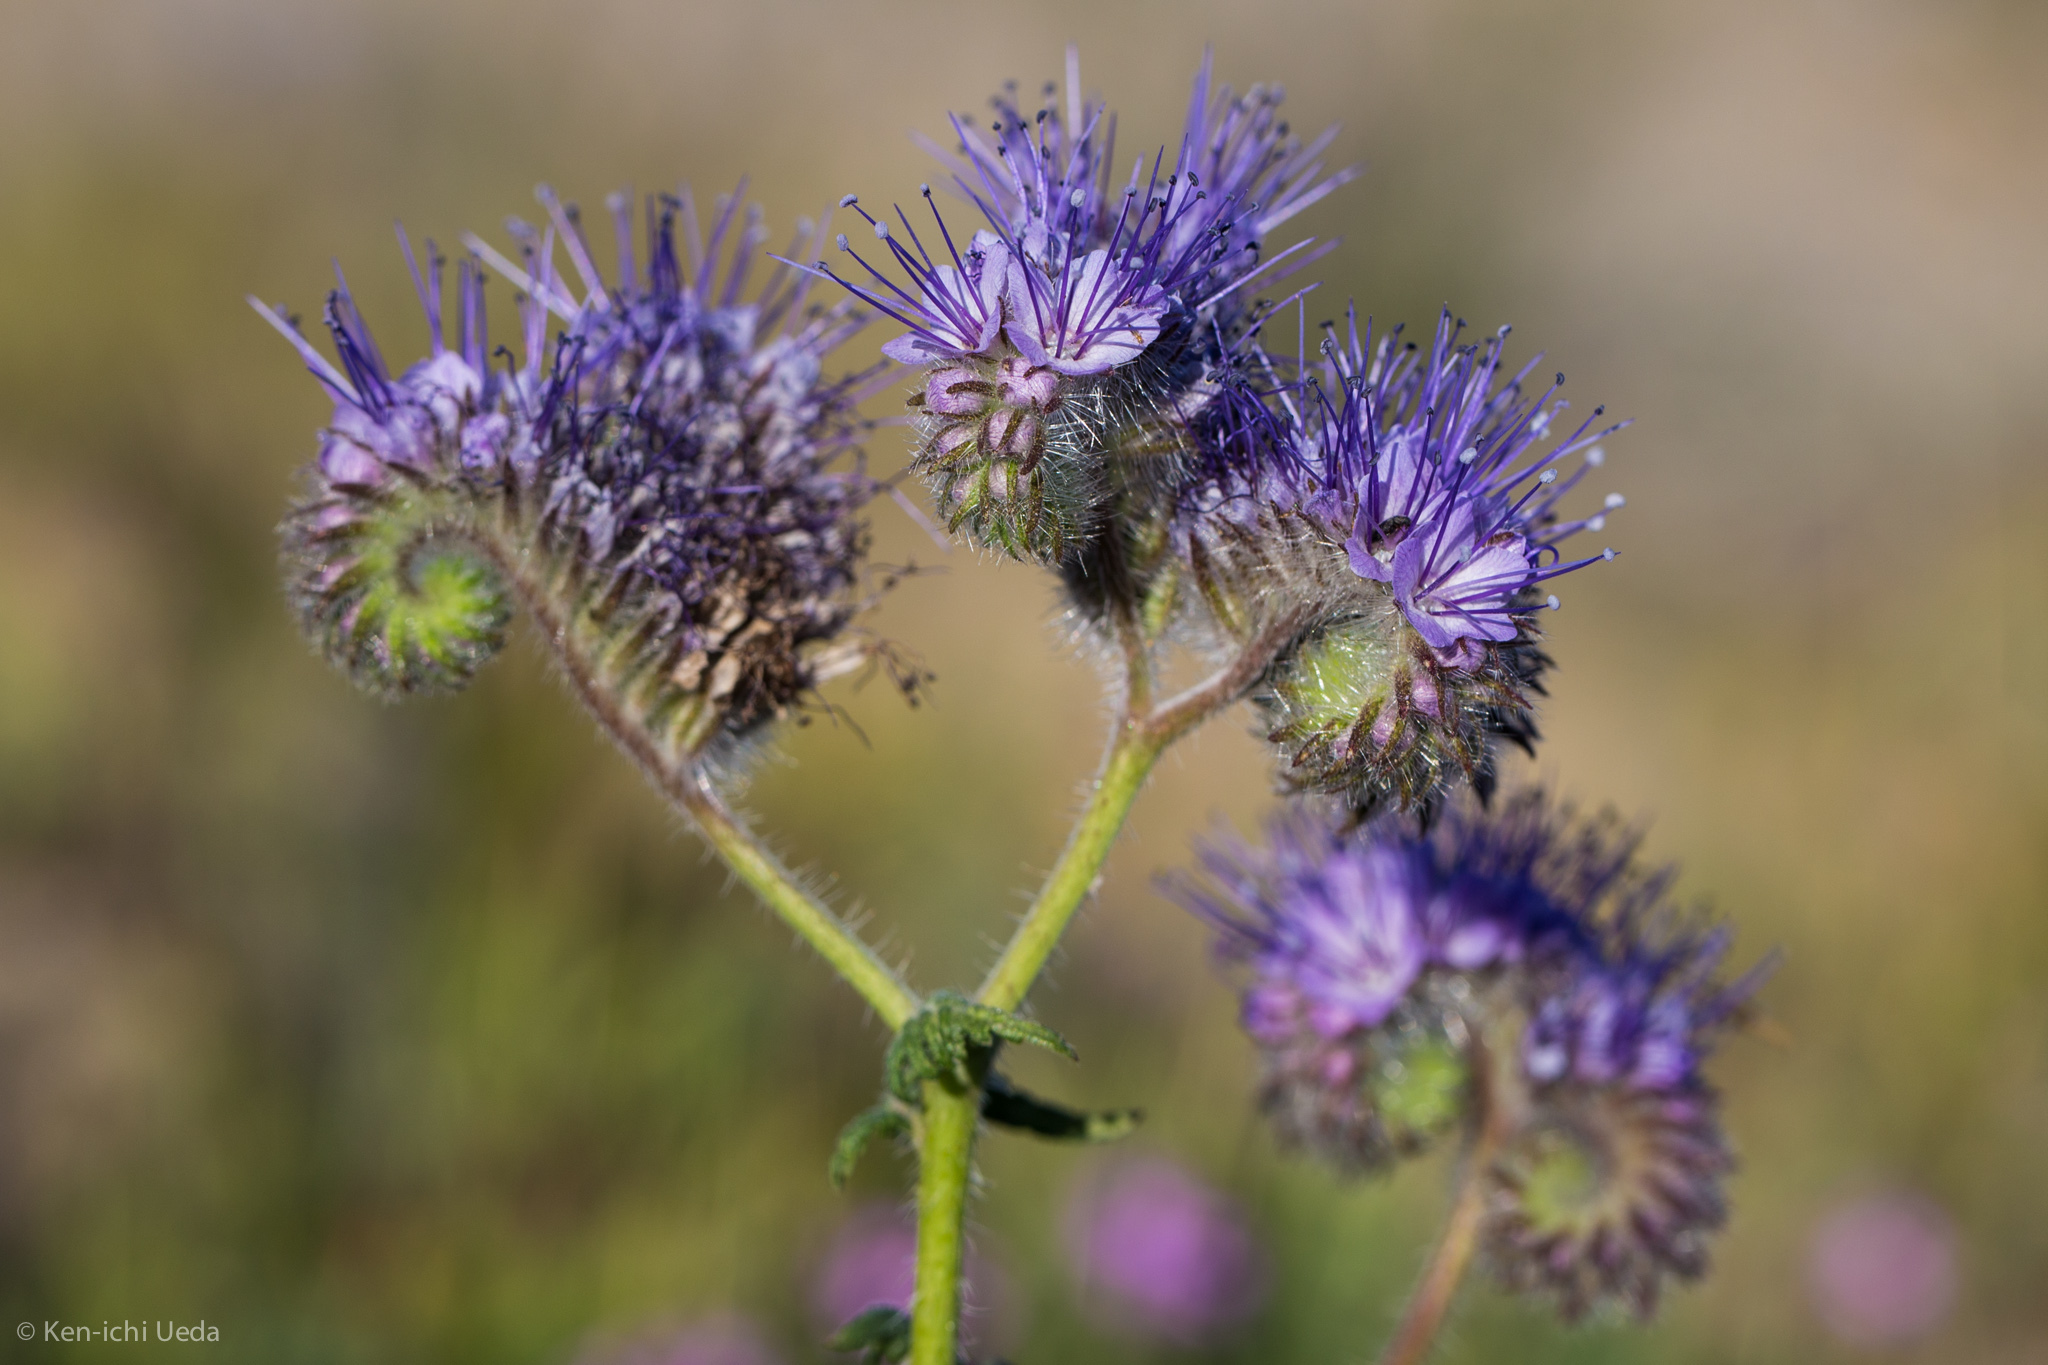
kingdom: Plantae
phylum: Tracheophyta
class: Magnoliopsida
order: Boraginales
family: Hydrophyllaceae
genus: Phacelia
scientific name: Phacelia tanacetifolia
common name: Phacelia
